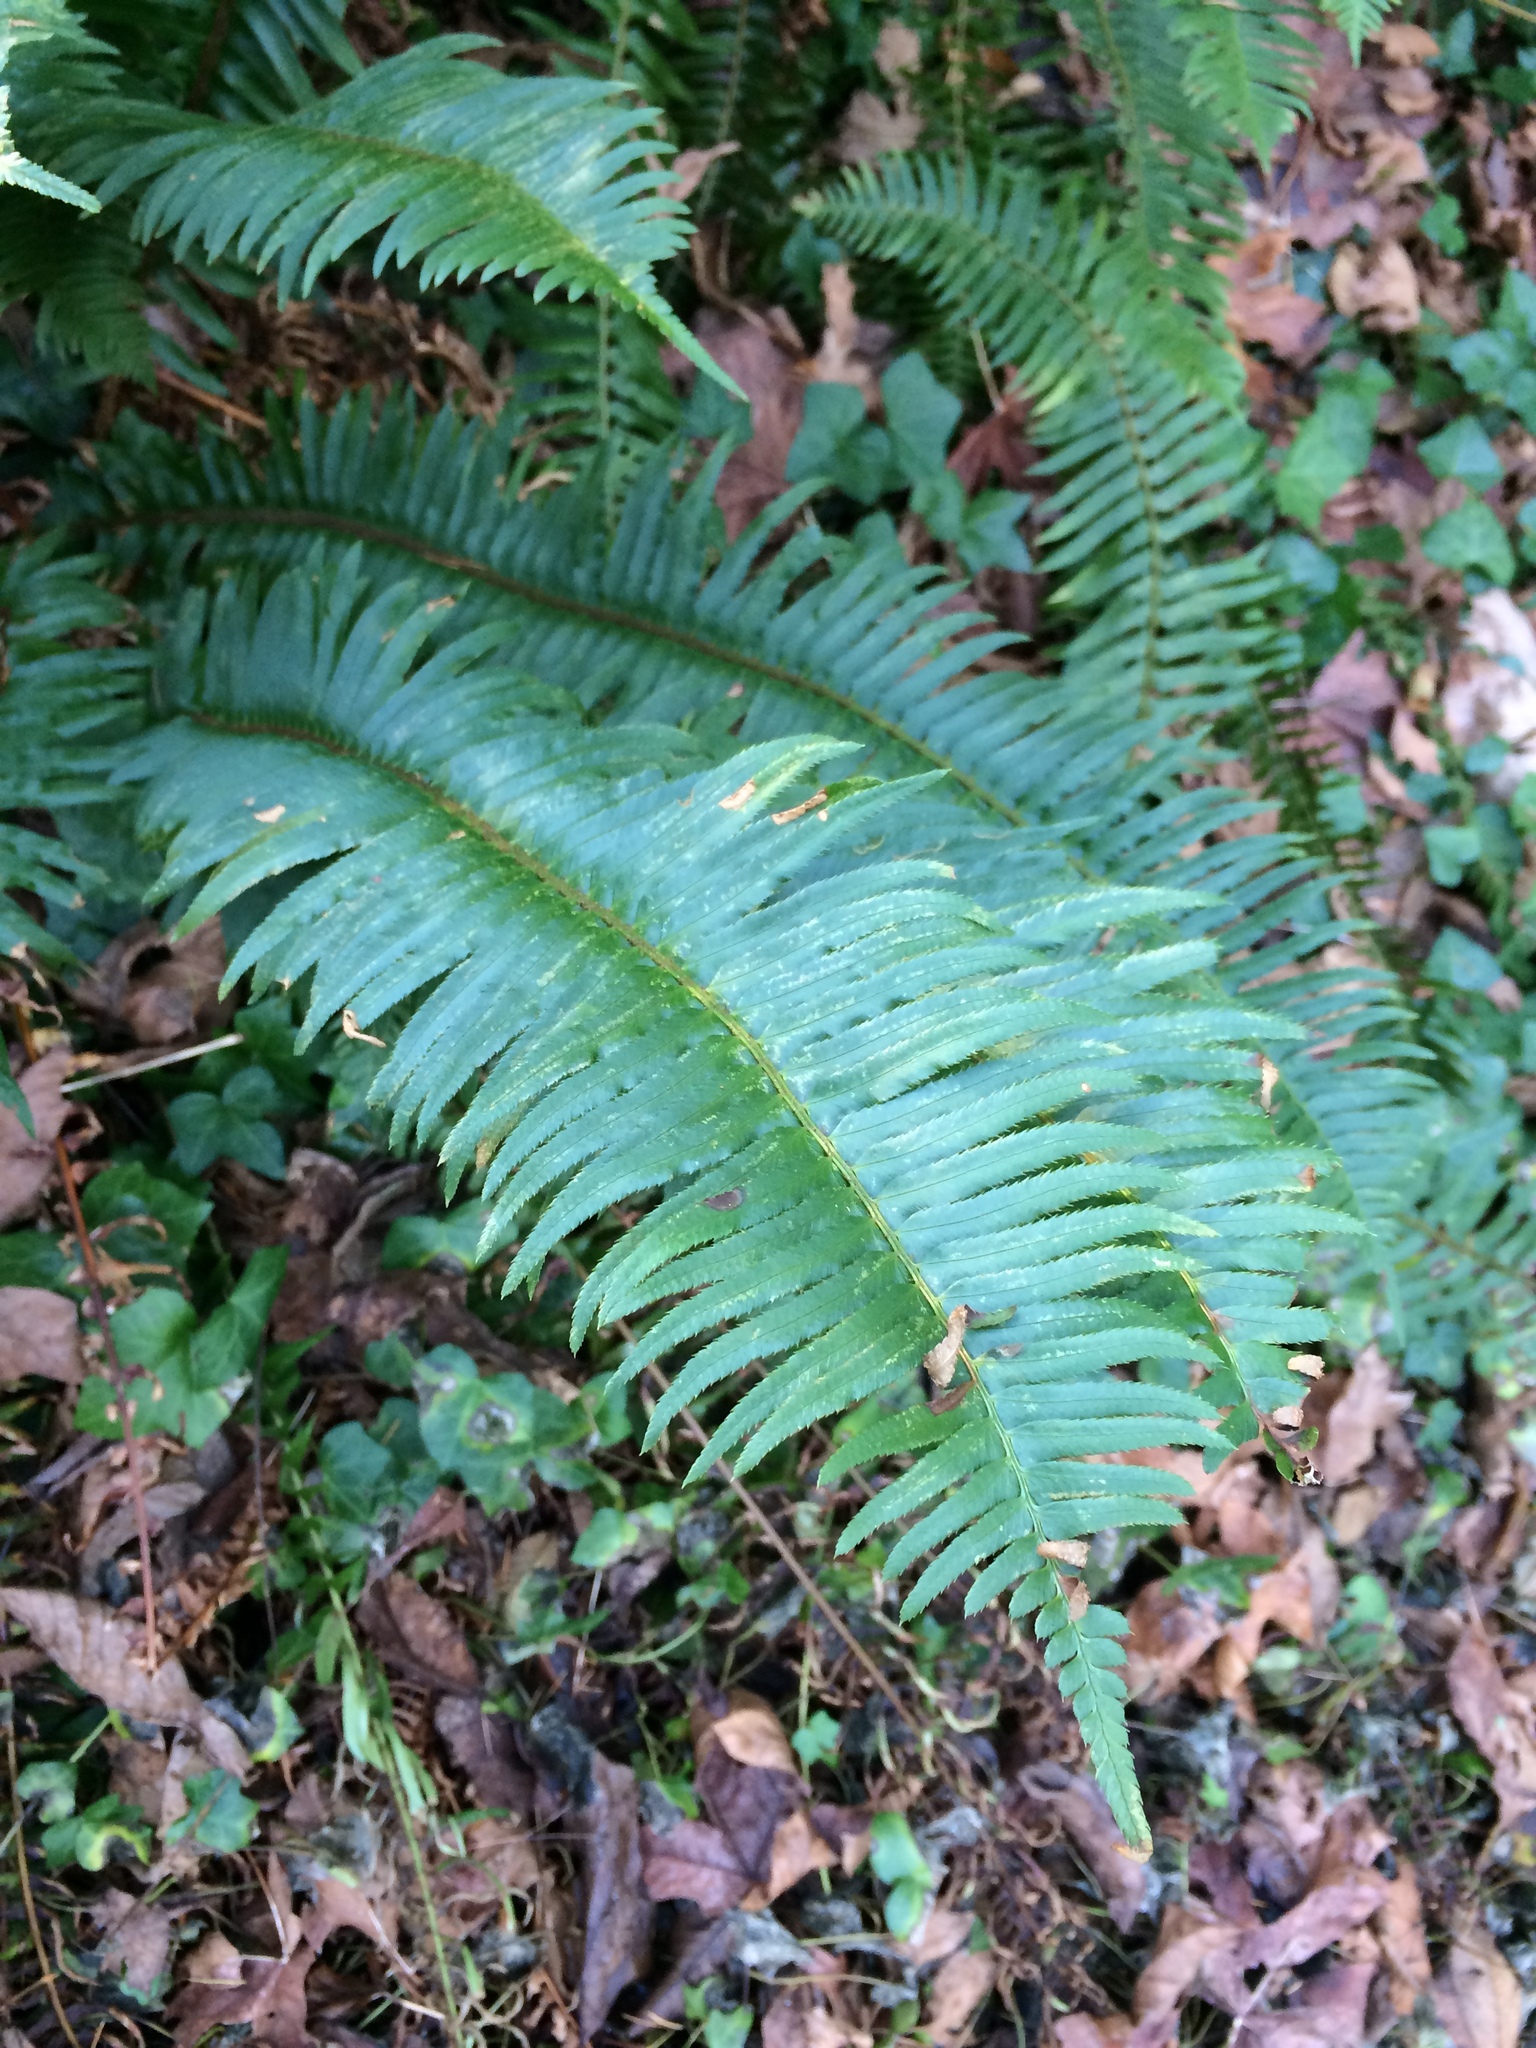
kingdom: Plantae
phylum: Tracheophyta
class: Polypodiopsida
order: Polypodiales
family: Dryopteridaceae
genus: Polystichum
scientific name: Polystichum munitum
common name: Western sword-fern
